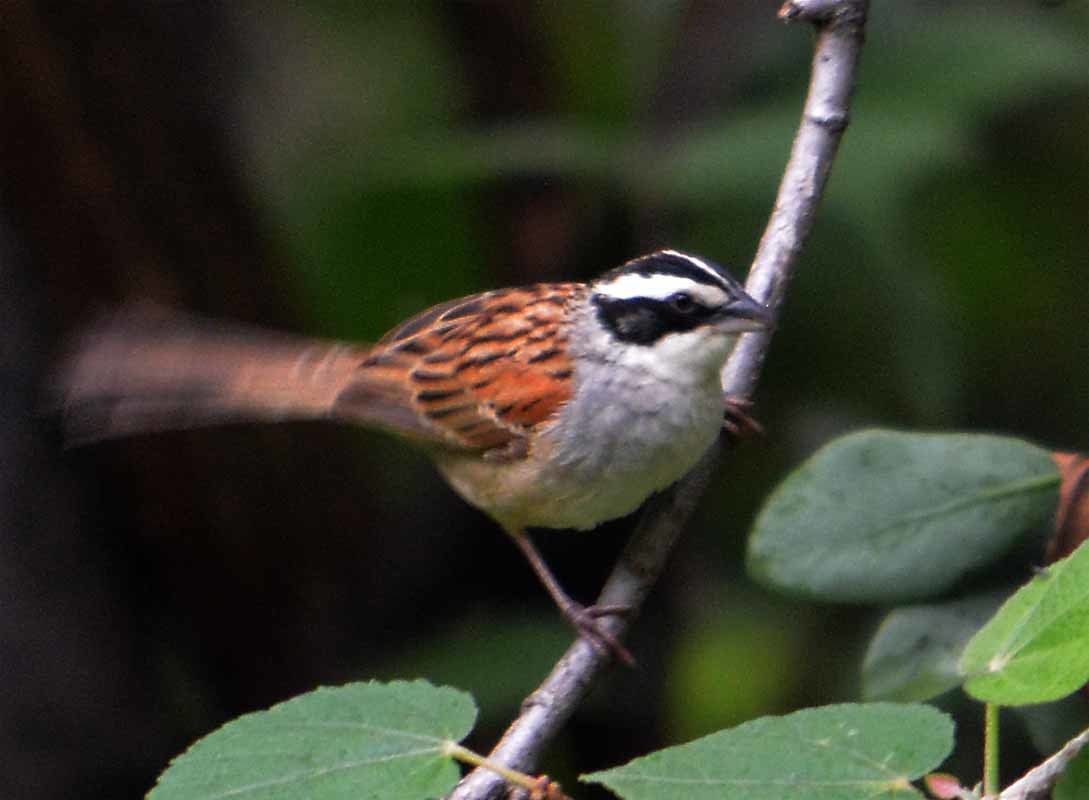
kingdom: Animalia
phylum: Chordata
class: Aves
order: Passeriformes
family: Passerellidae
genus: Peucaea
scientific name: Peucaea ruficauda
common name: Stripe-headed sparrow
